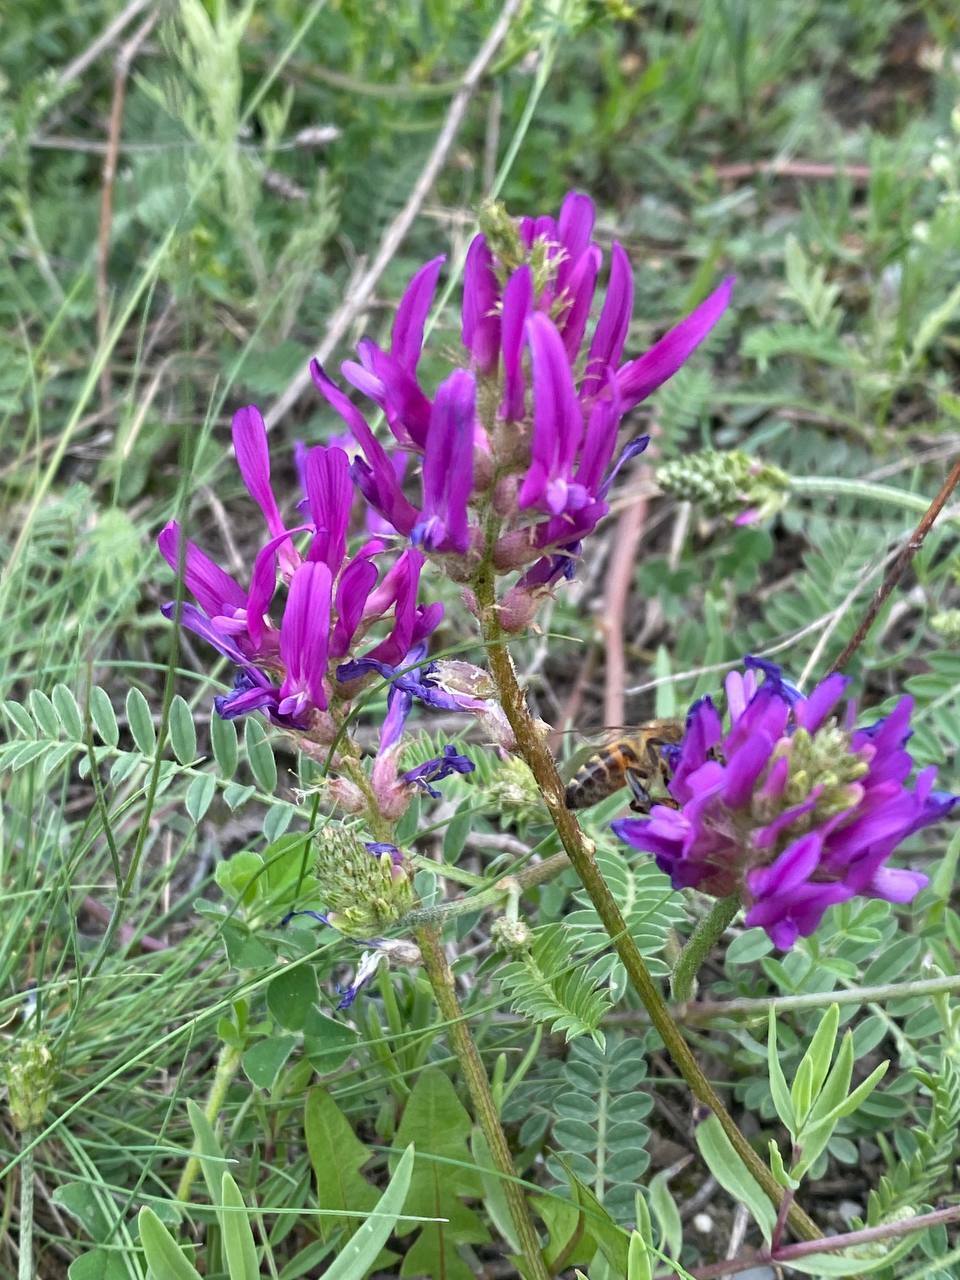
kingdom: Plantae
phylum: Tracheophyta
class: Magnoliopsida
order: Fabales
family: Fabaceae
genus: Astragalus
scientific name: Astragalus onobrychis
